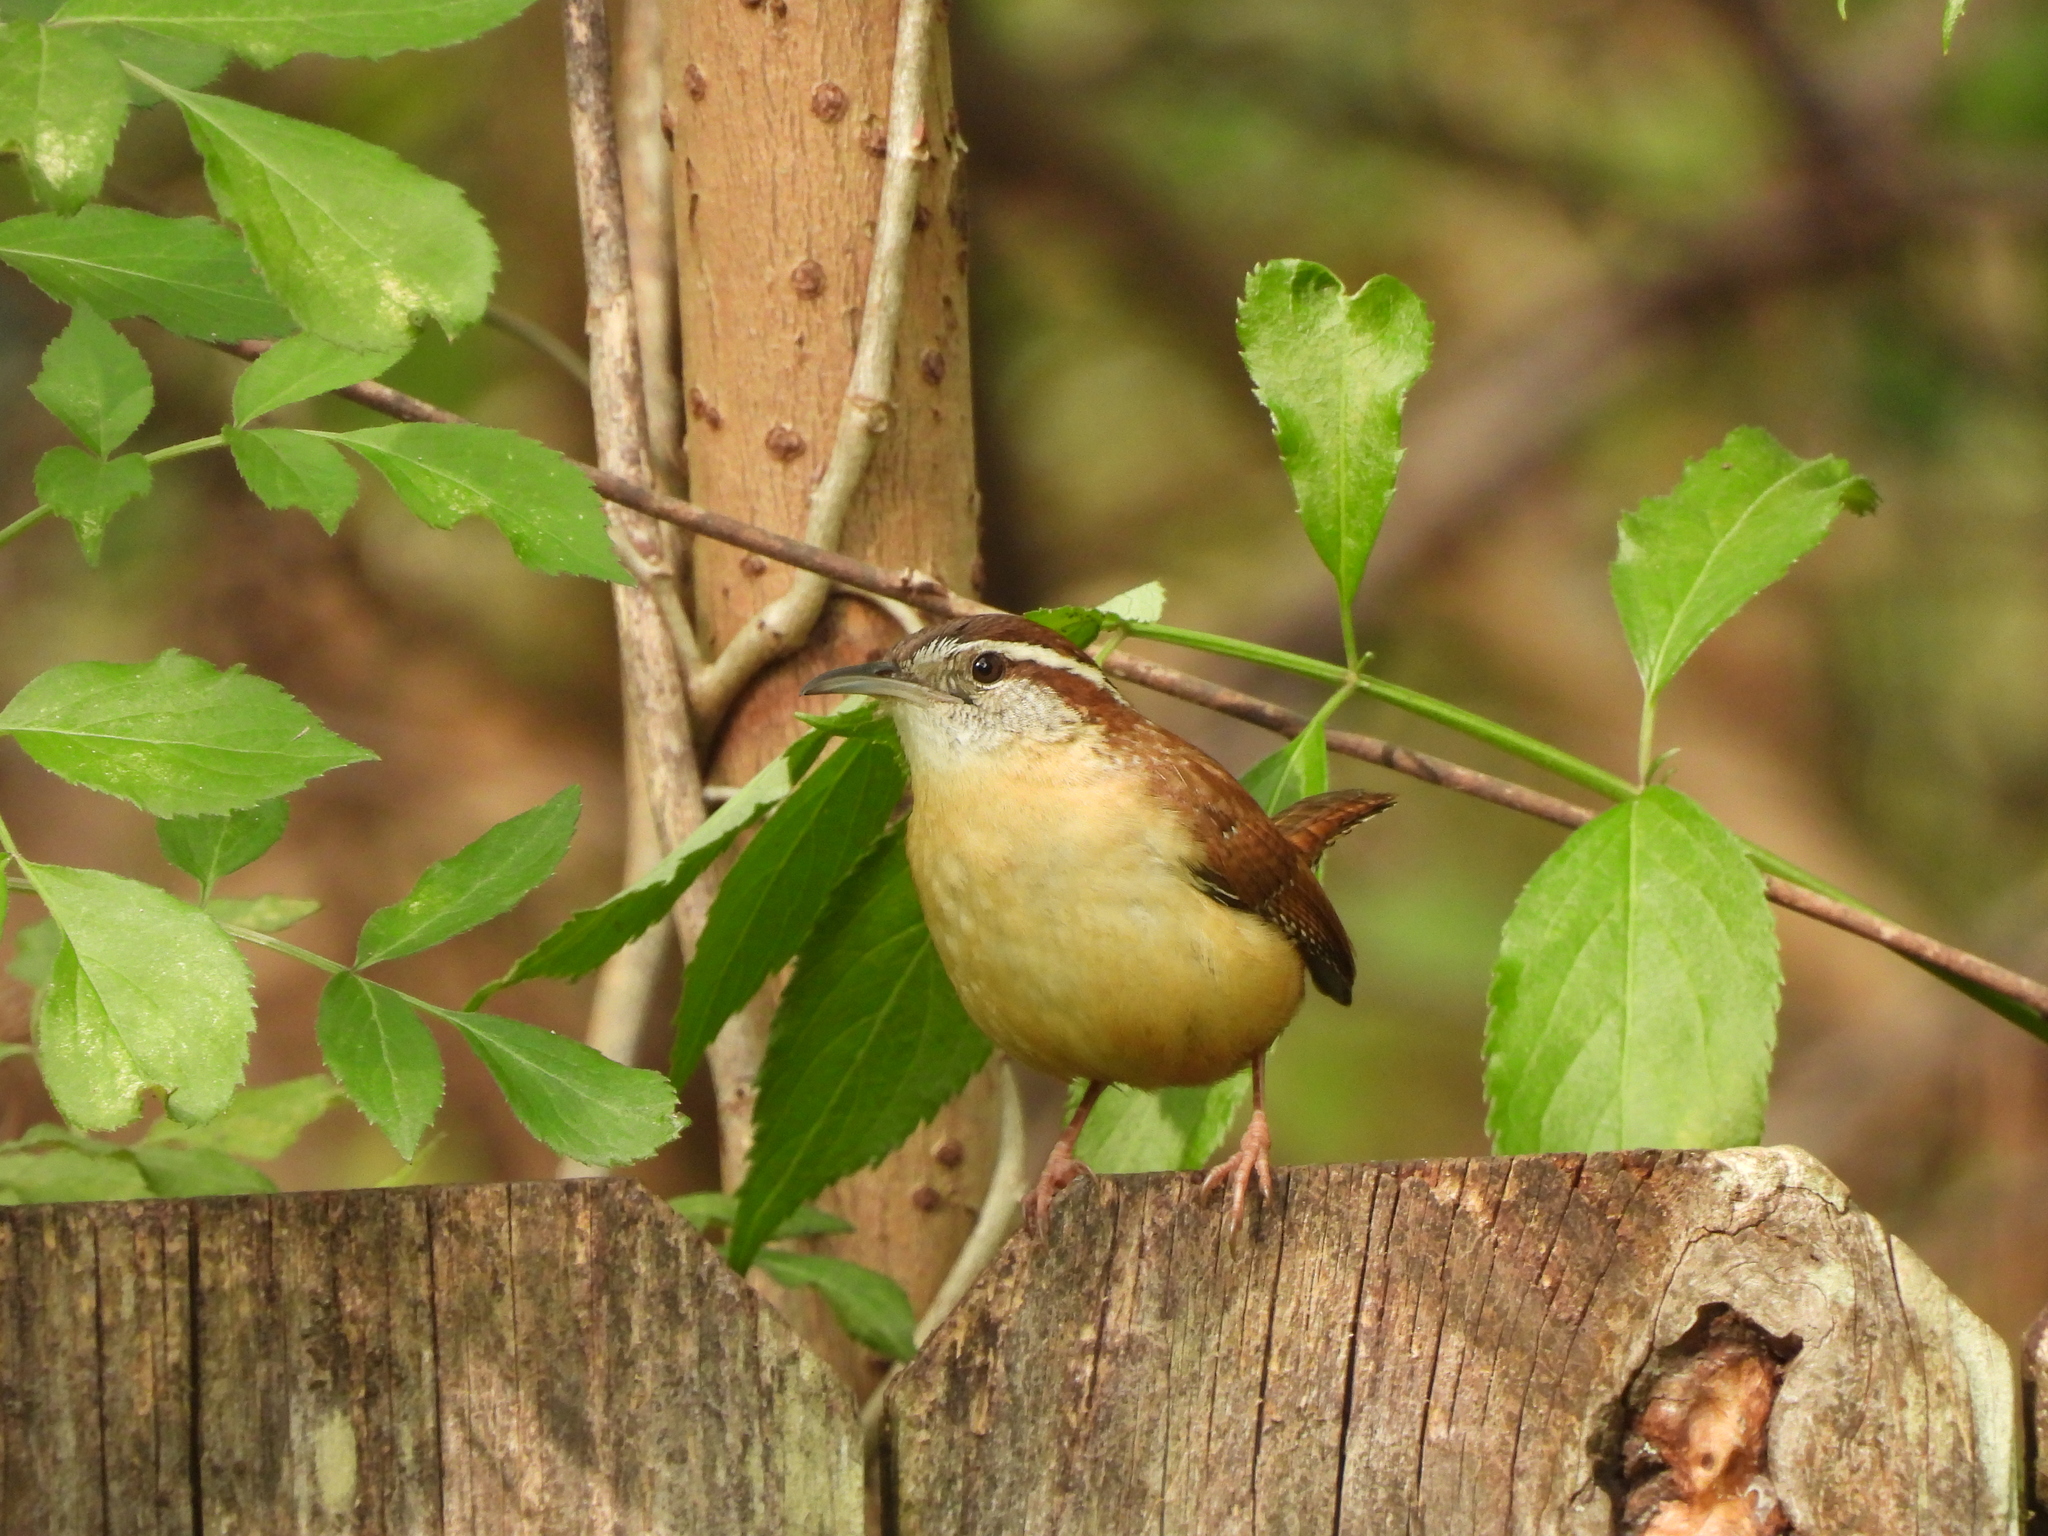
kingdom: Animalia
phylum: Chordata
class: Aves
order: Passeriformes
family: Troglodytidae
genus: Thryothorus
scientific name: Thryothorus ludovicianus
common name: Carolina wren
